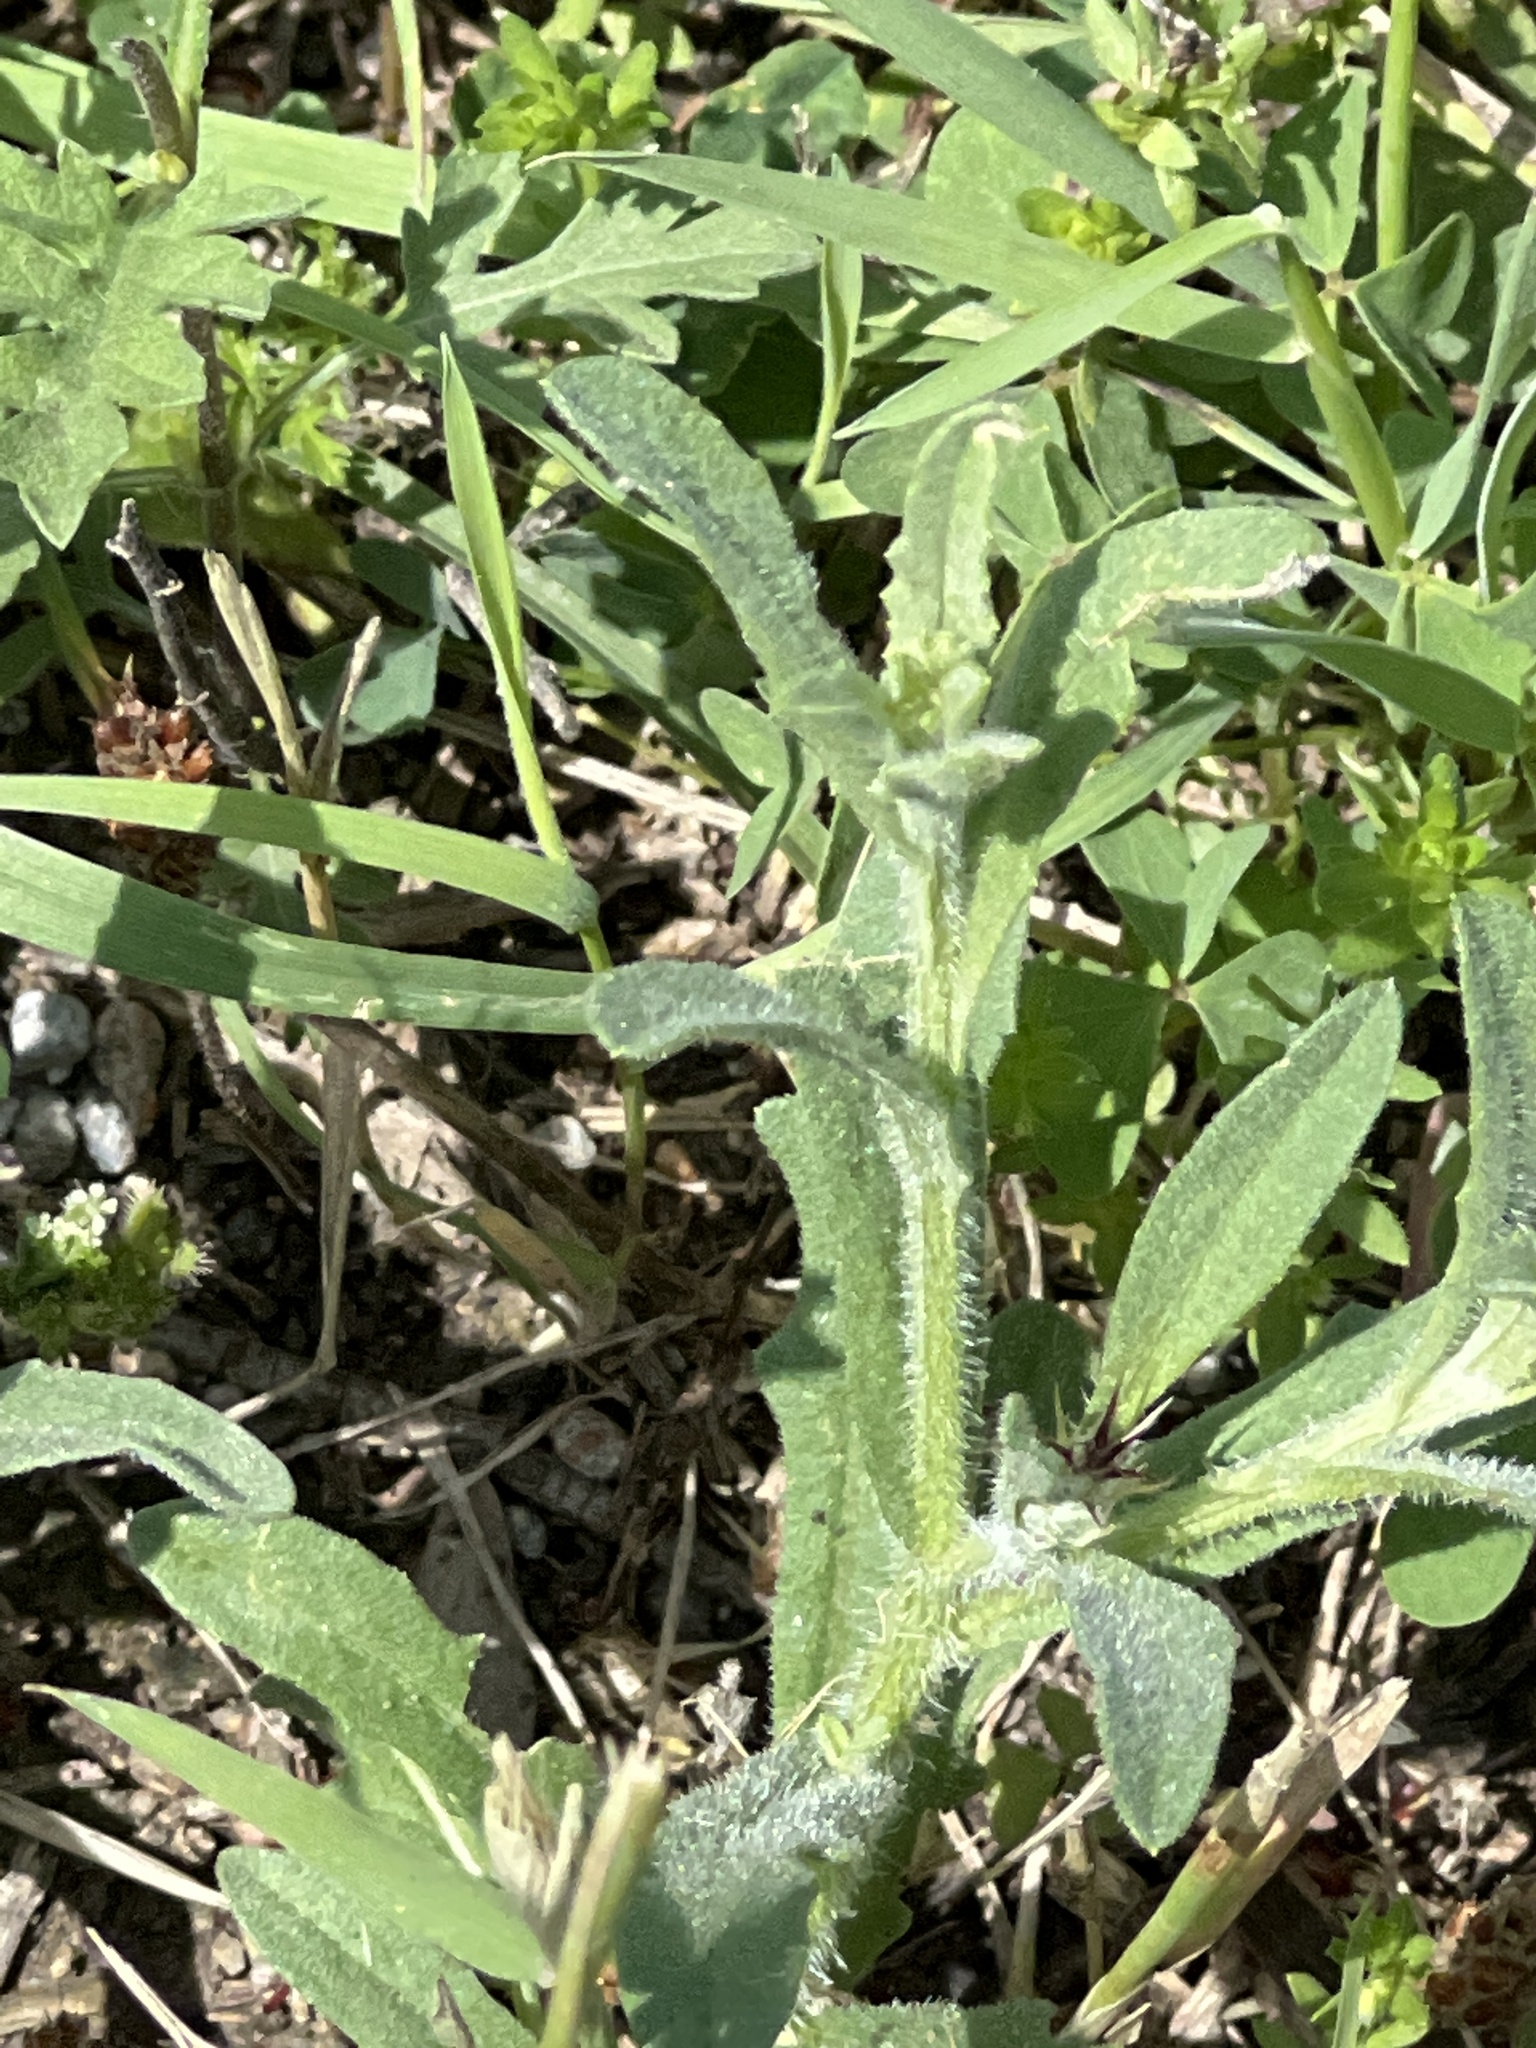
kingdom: Plantae
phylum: Tracheophyta
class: Magnoliopsida
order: Asterales
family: Asteraceae
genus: Centaurea
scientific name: Centaurea melitensis
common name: Maltese star-thistle
